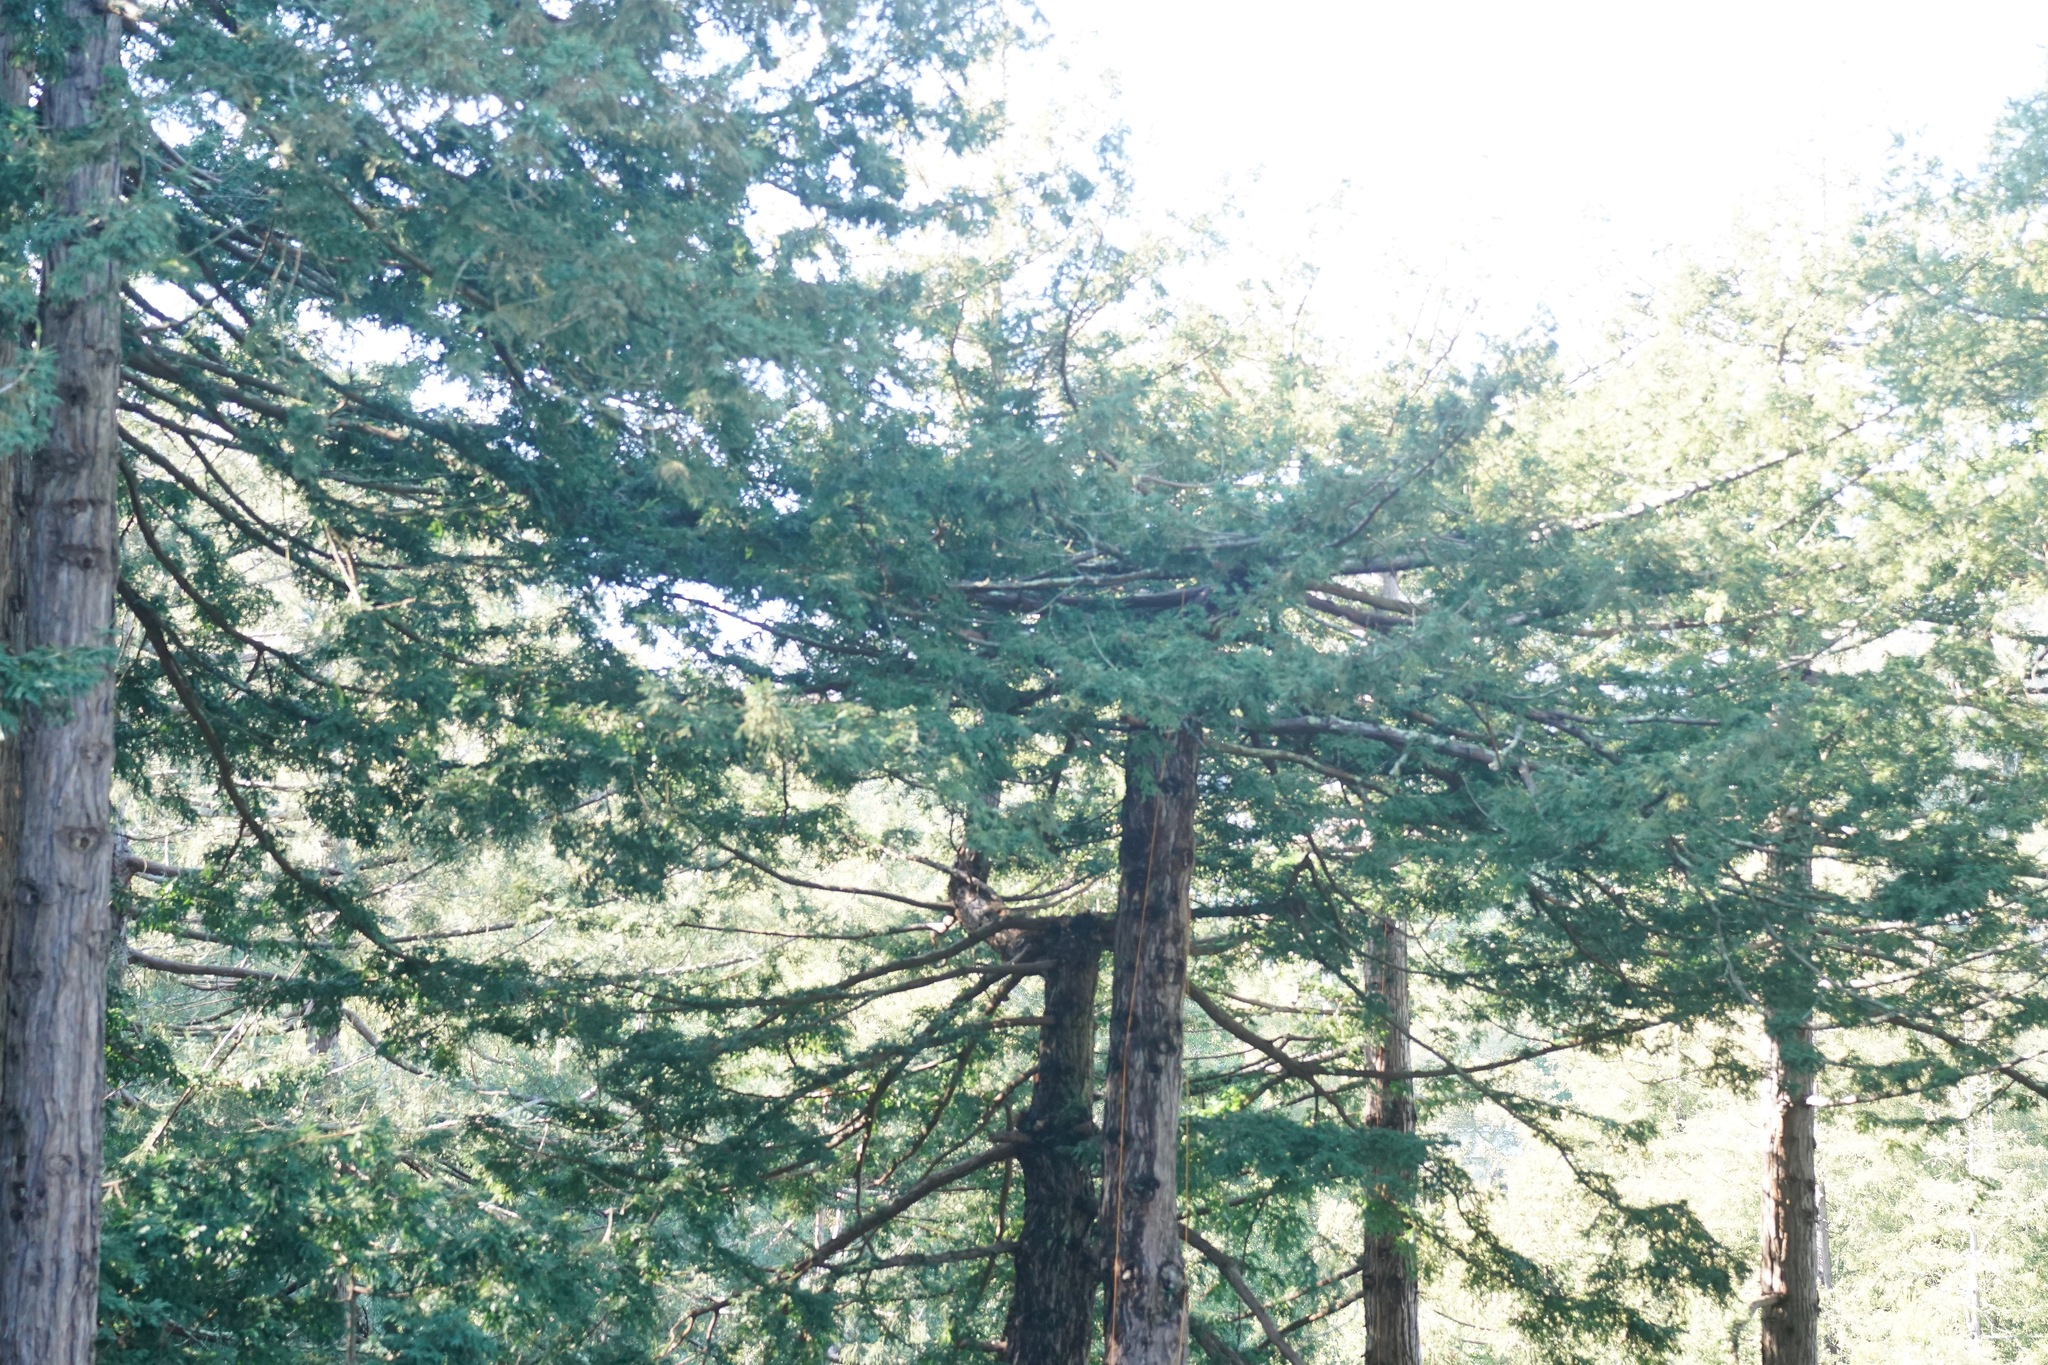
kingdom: Plantae
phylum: Tracheophyta
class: Pinopsida
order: Pinales
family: Cupressaceae
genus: Sequoia
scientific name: Sequoia sempervirens
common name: Coast redwood
